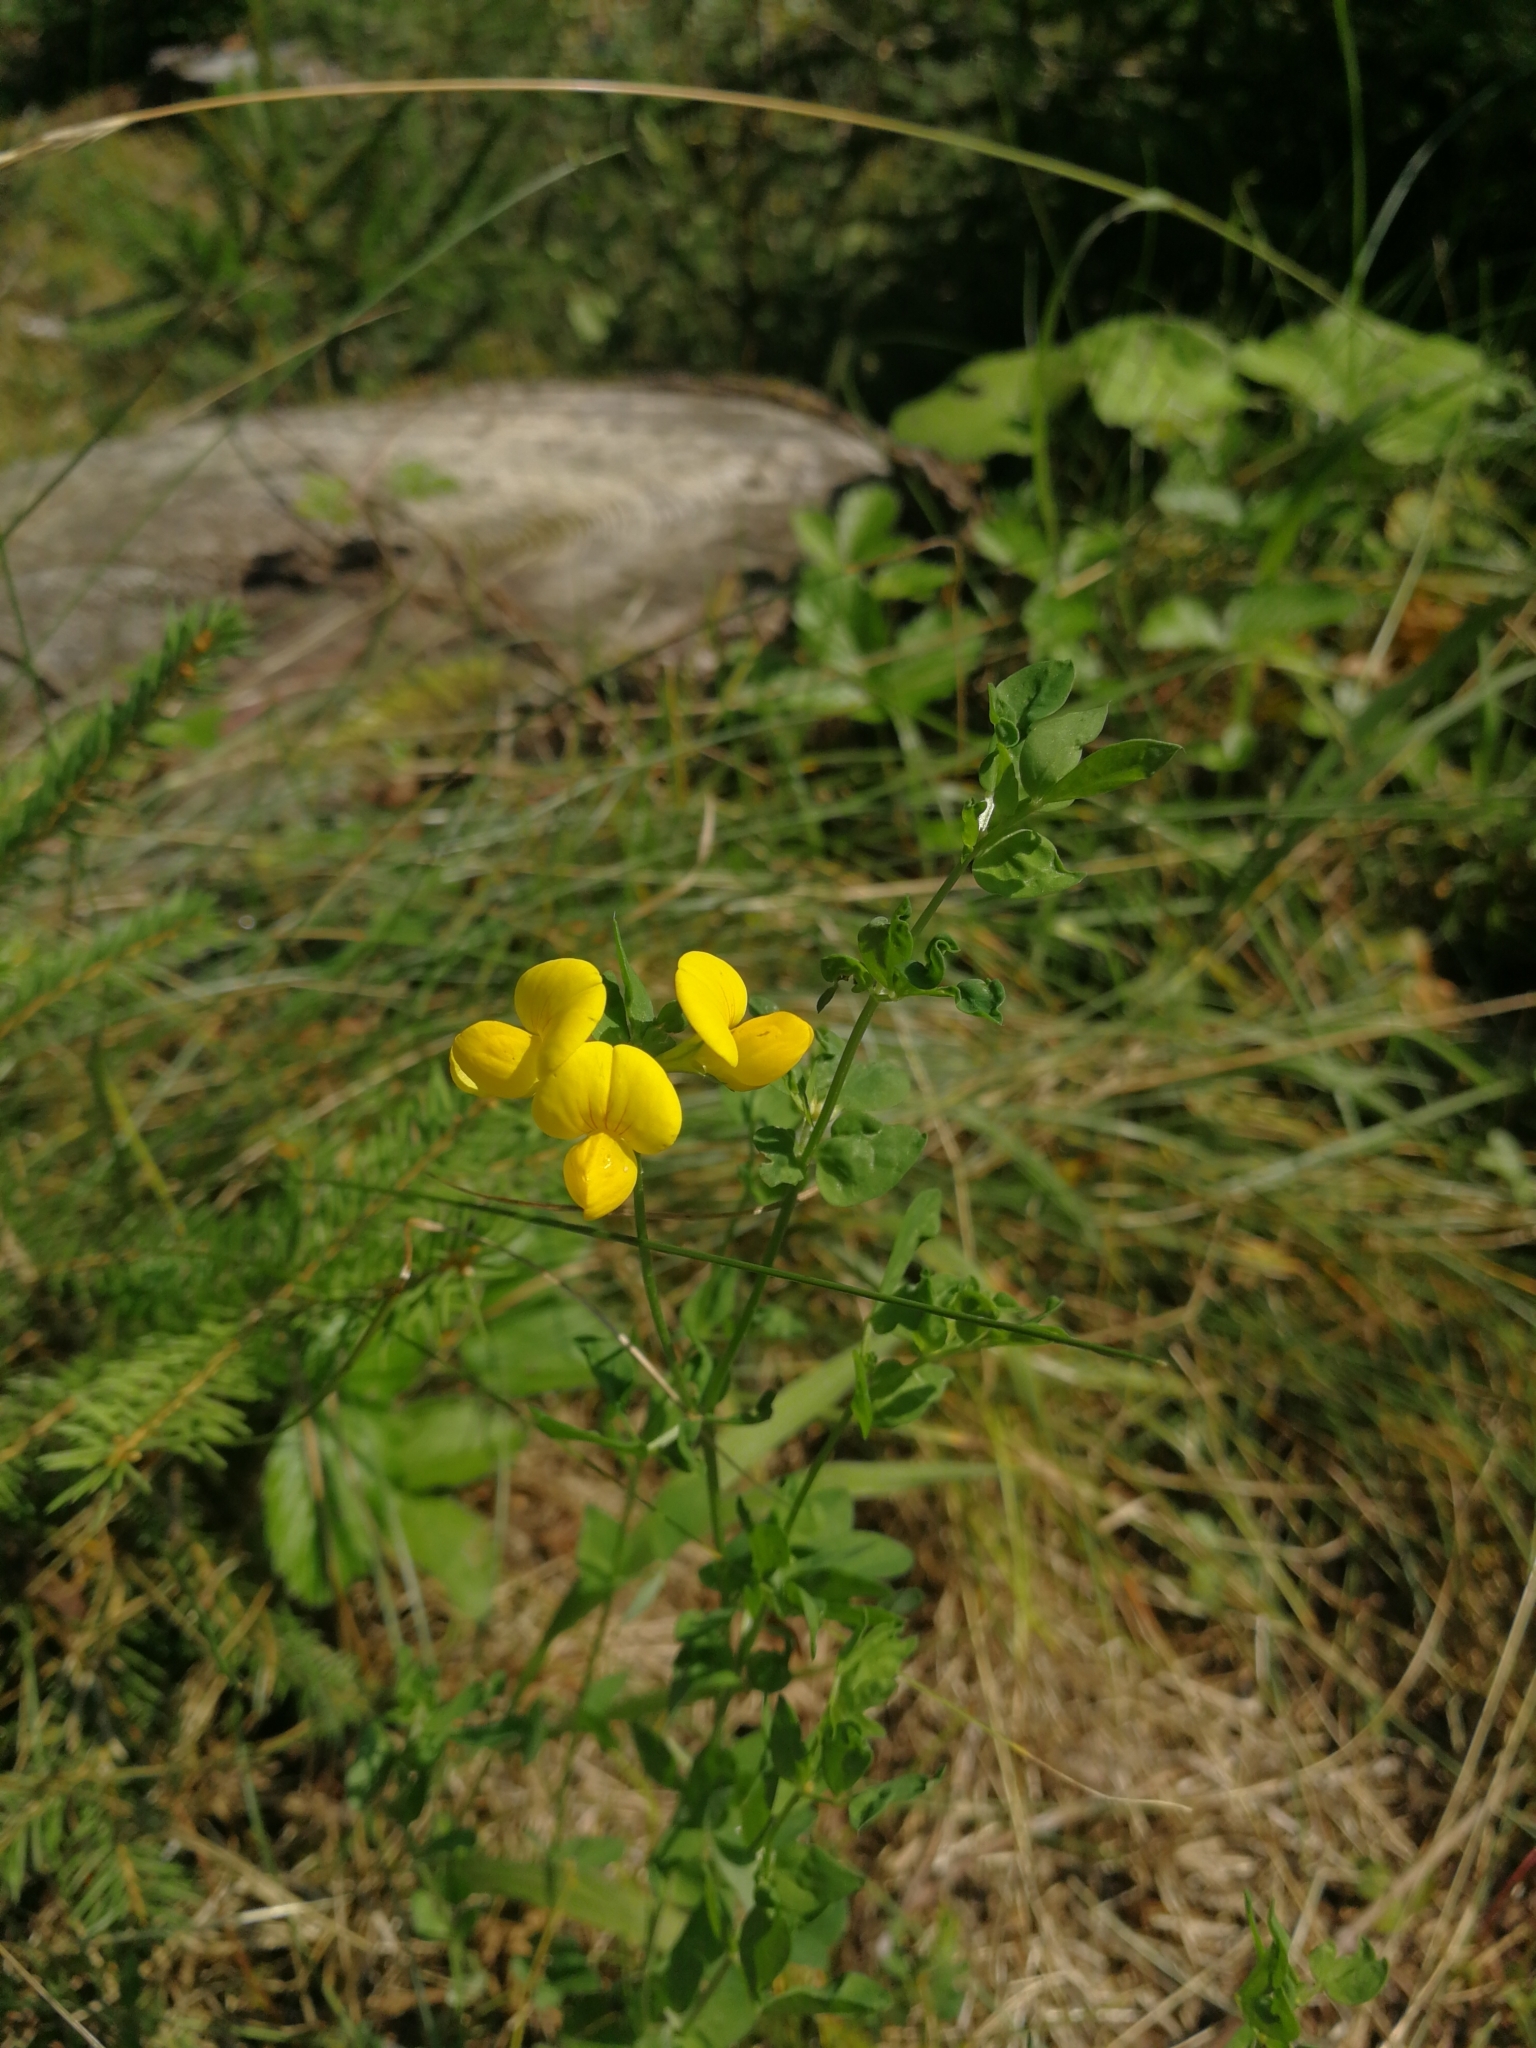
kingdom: Plantae
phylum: Tracheophyta
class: Magnoliopsida
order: Fabales
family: Fabaceae
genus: Lotus
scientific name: Lotus corniculatus
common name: Common bird's-foot-trefoil
